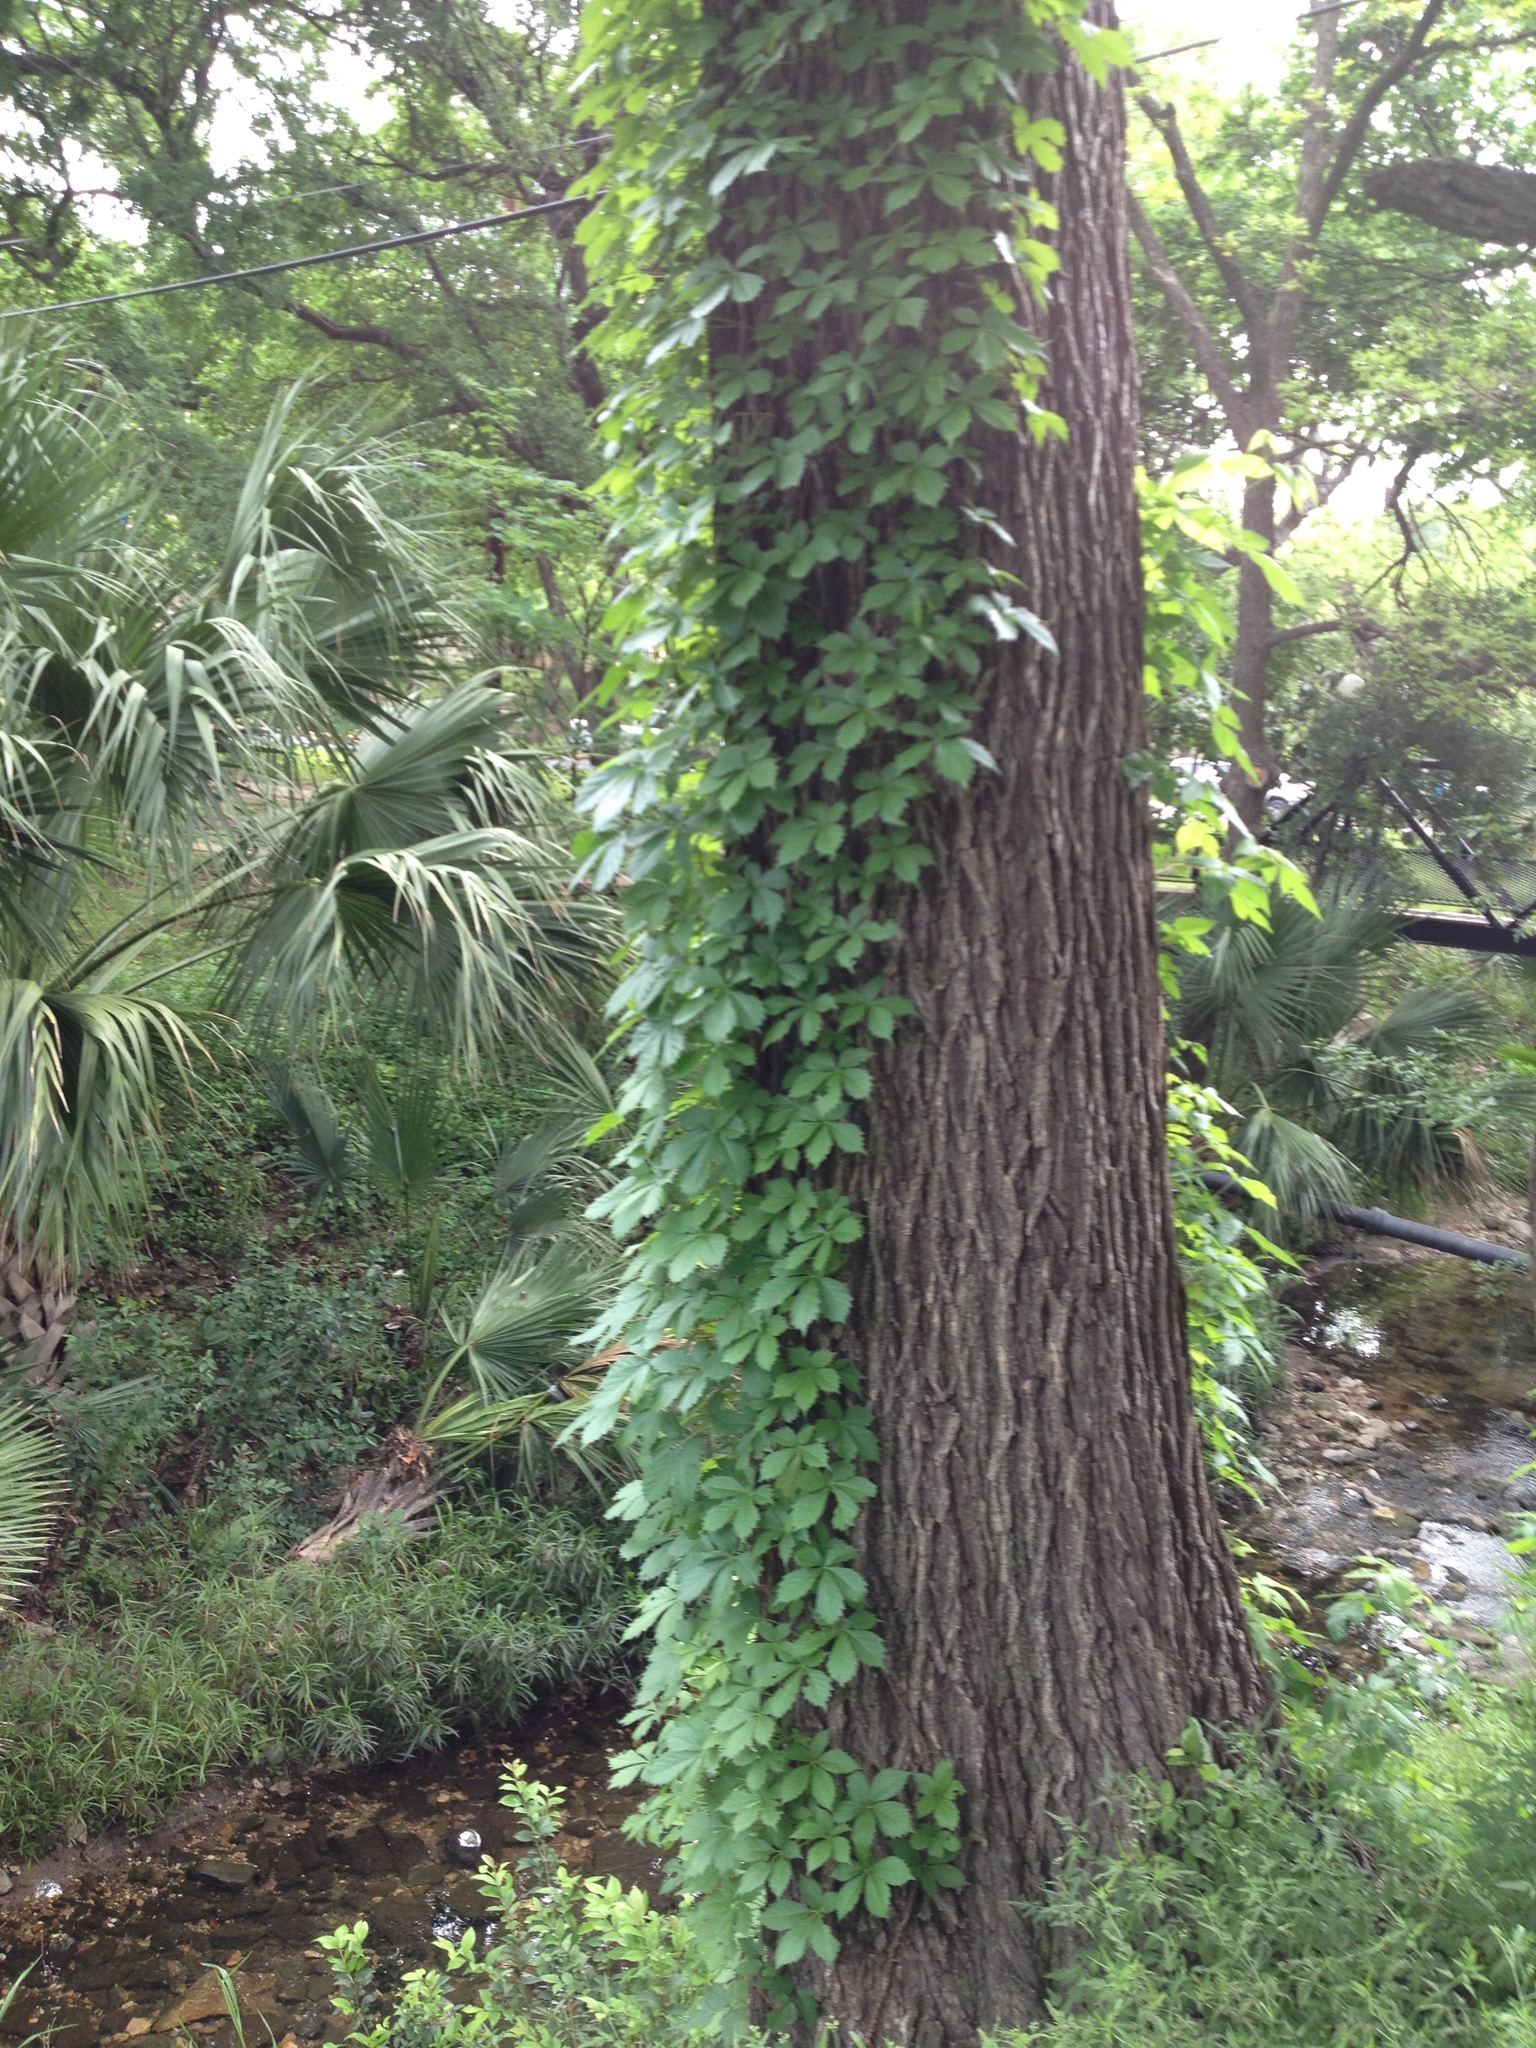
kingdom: Plantae
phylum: Tracheophyta
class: Magnoliopsida
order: Vitales
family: Vitaceae
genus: Parthenocissus
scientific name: Parthenocissus quinquefolia
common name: Virginia-creeper
